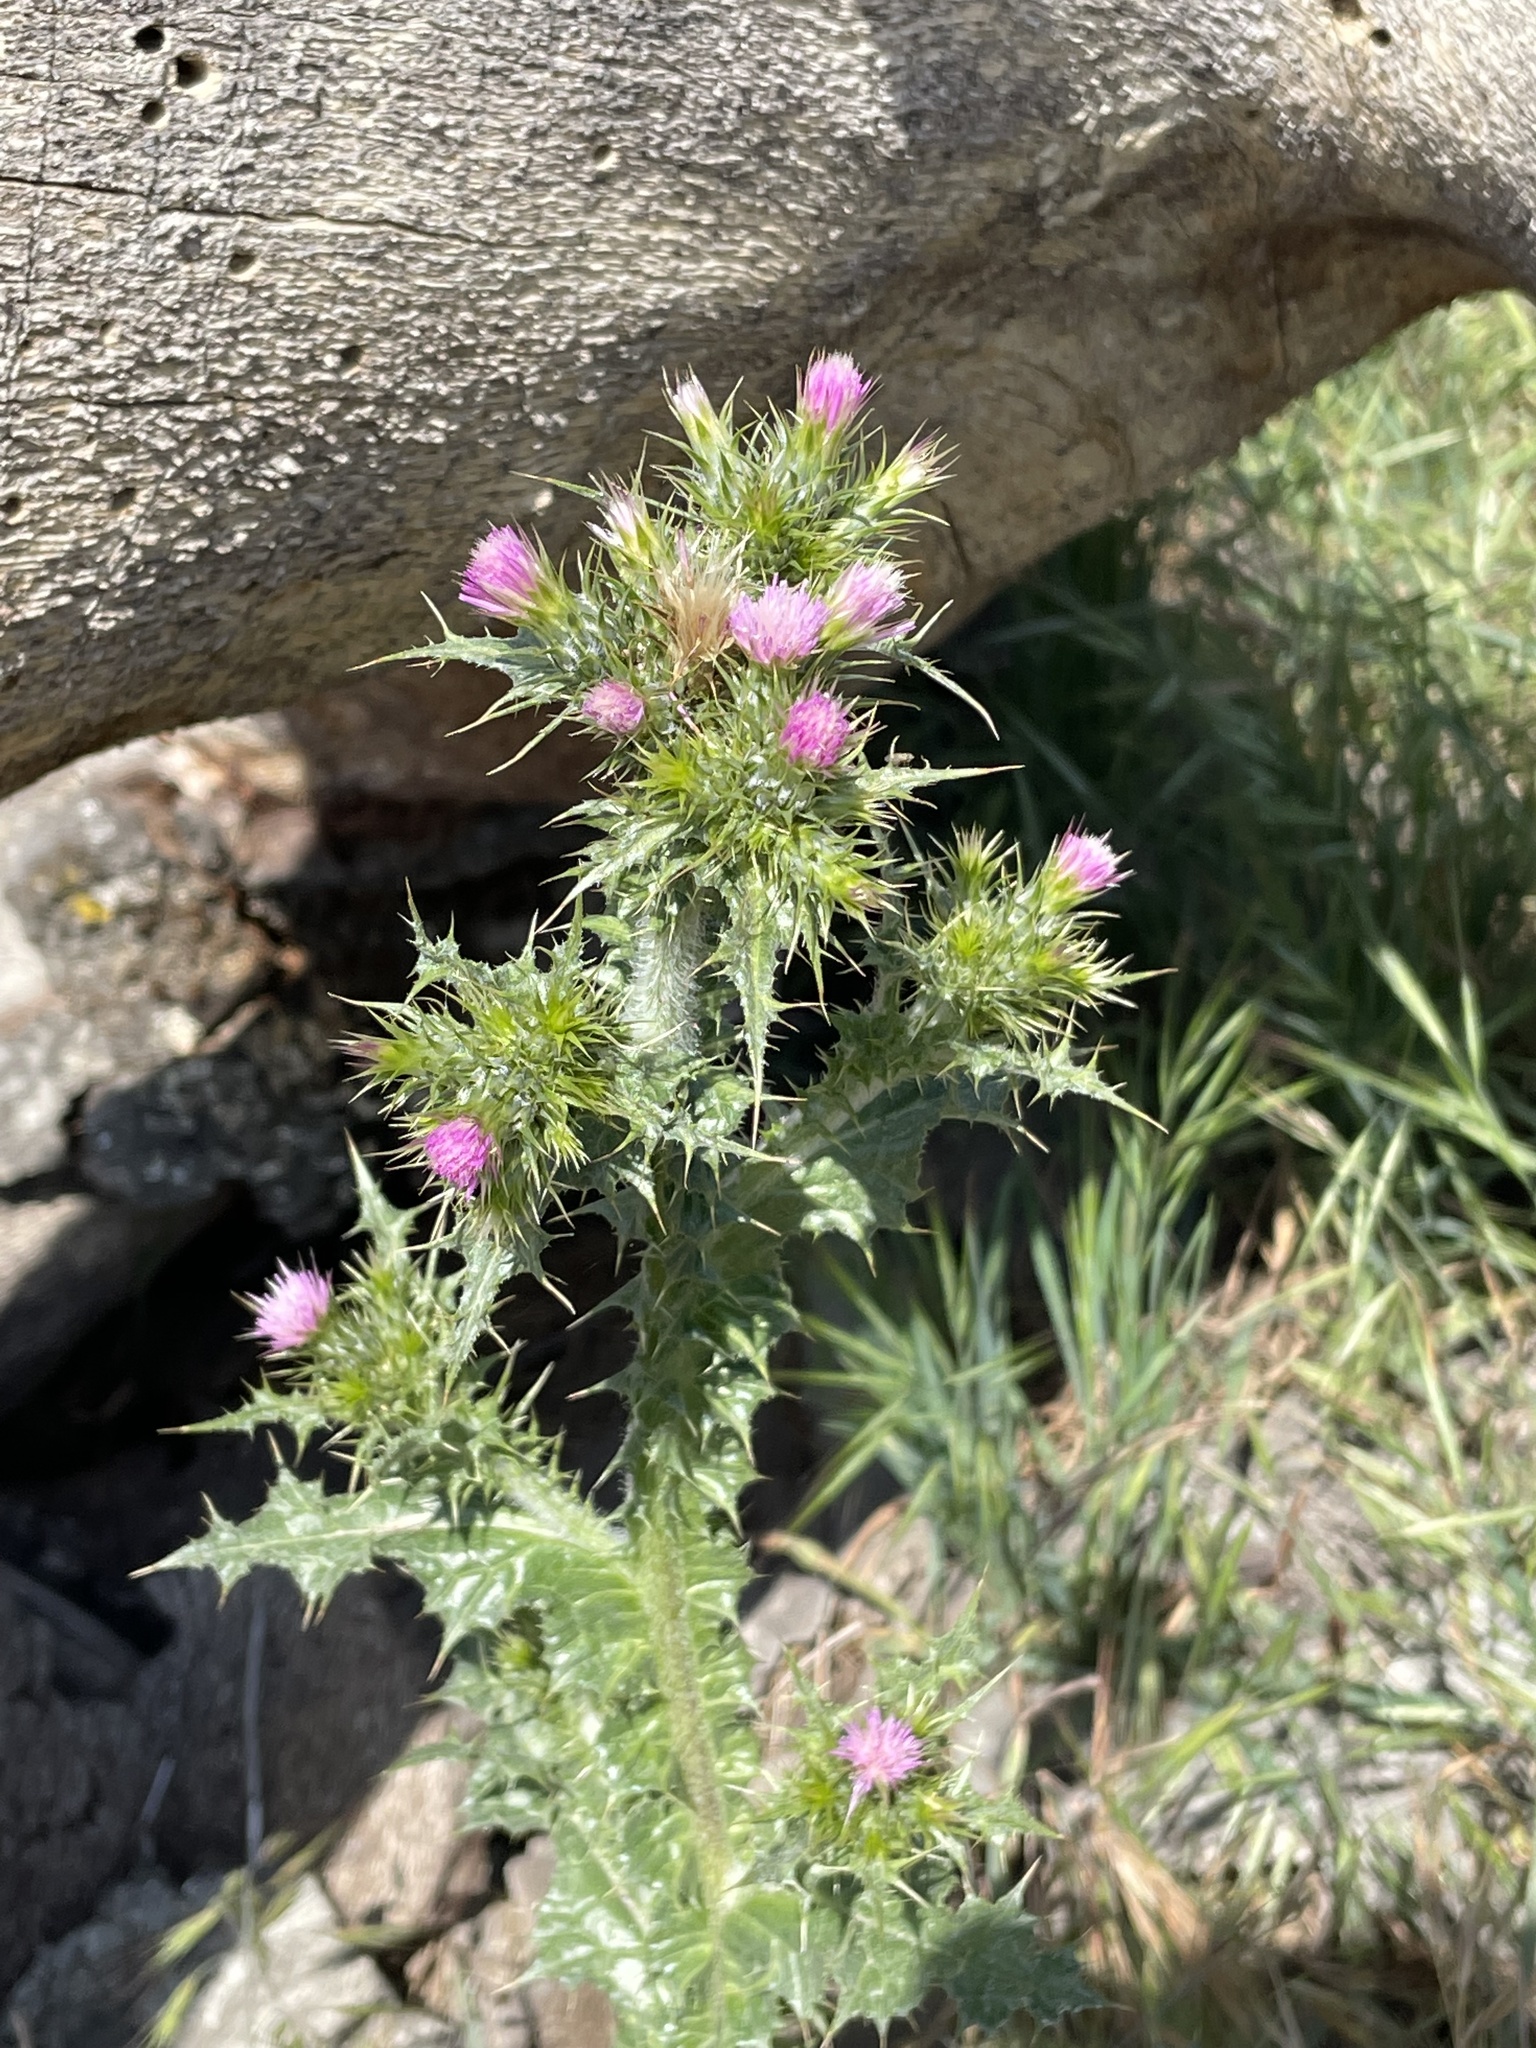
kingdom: Plantae
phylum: Tracheophyta
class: Magnoliopsida
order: Asterales
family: Asteraceae
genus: Carduus
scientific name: Carduus tenuiflorus
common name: Slender thistle
